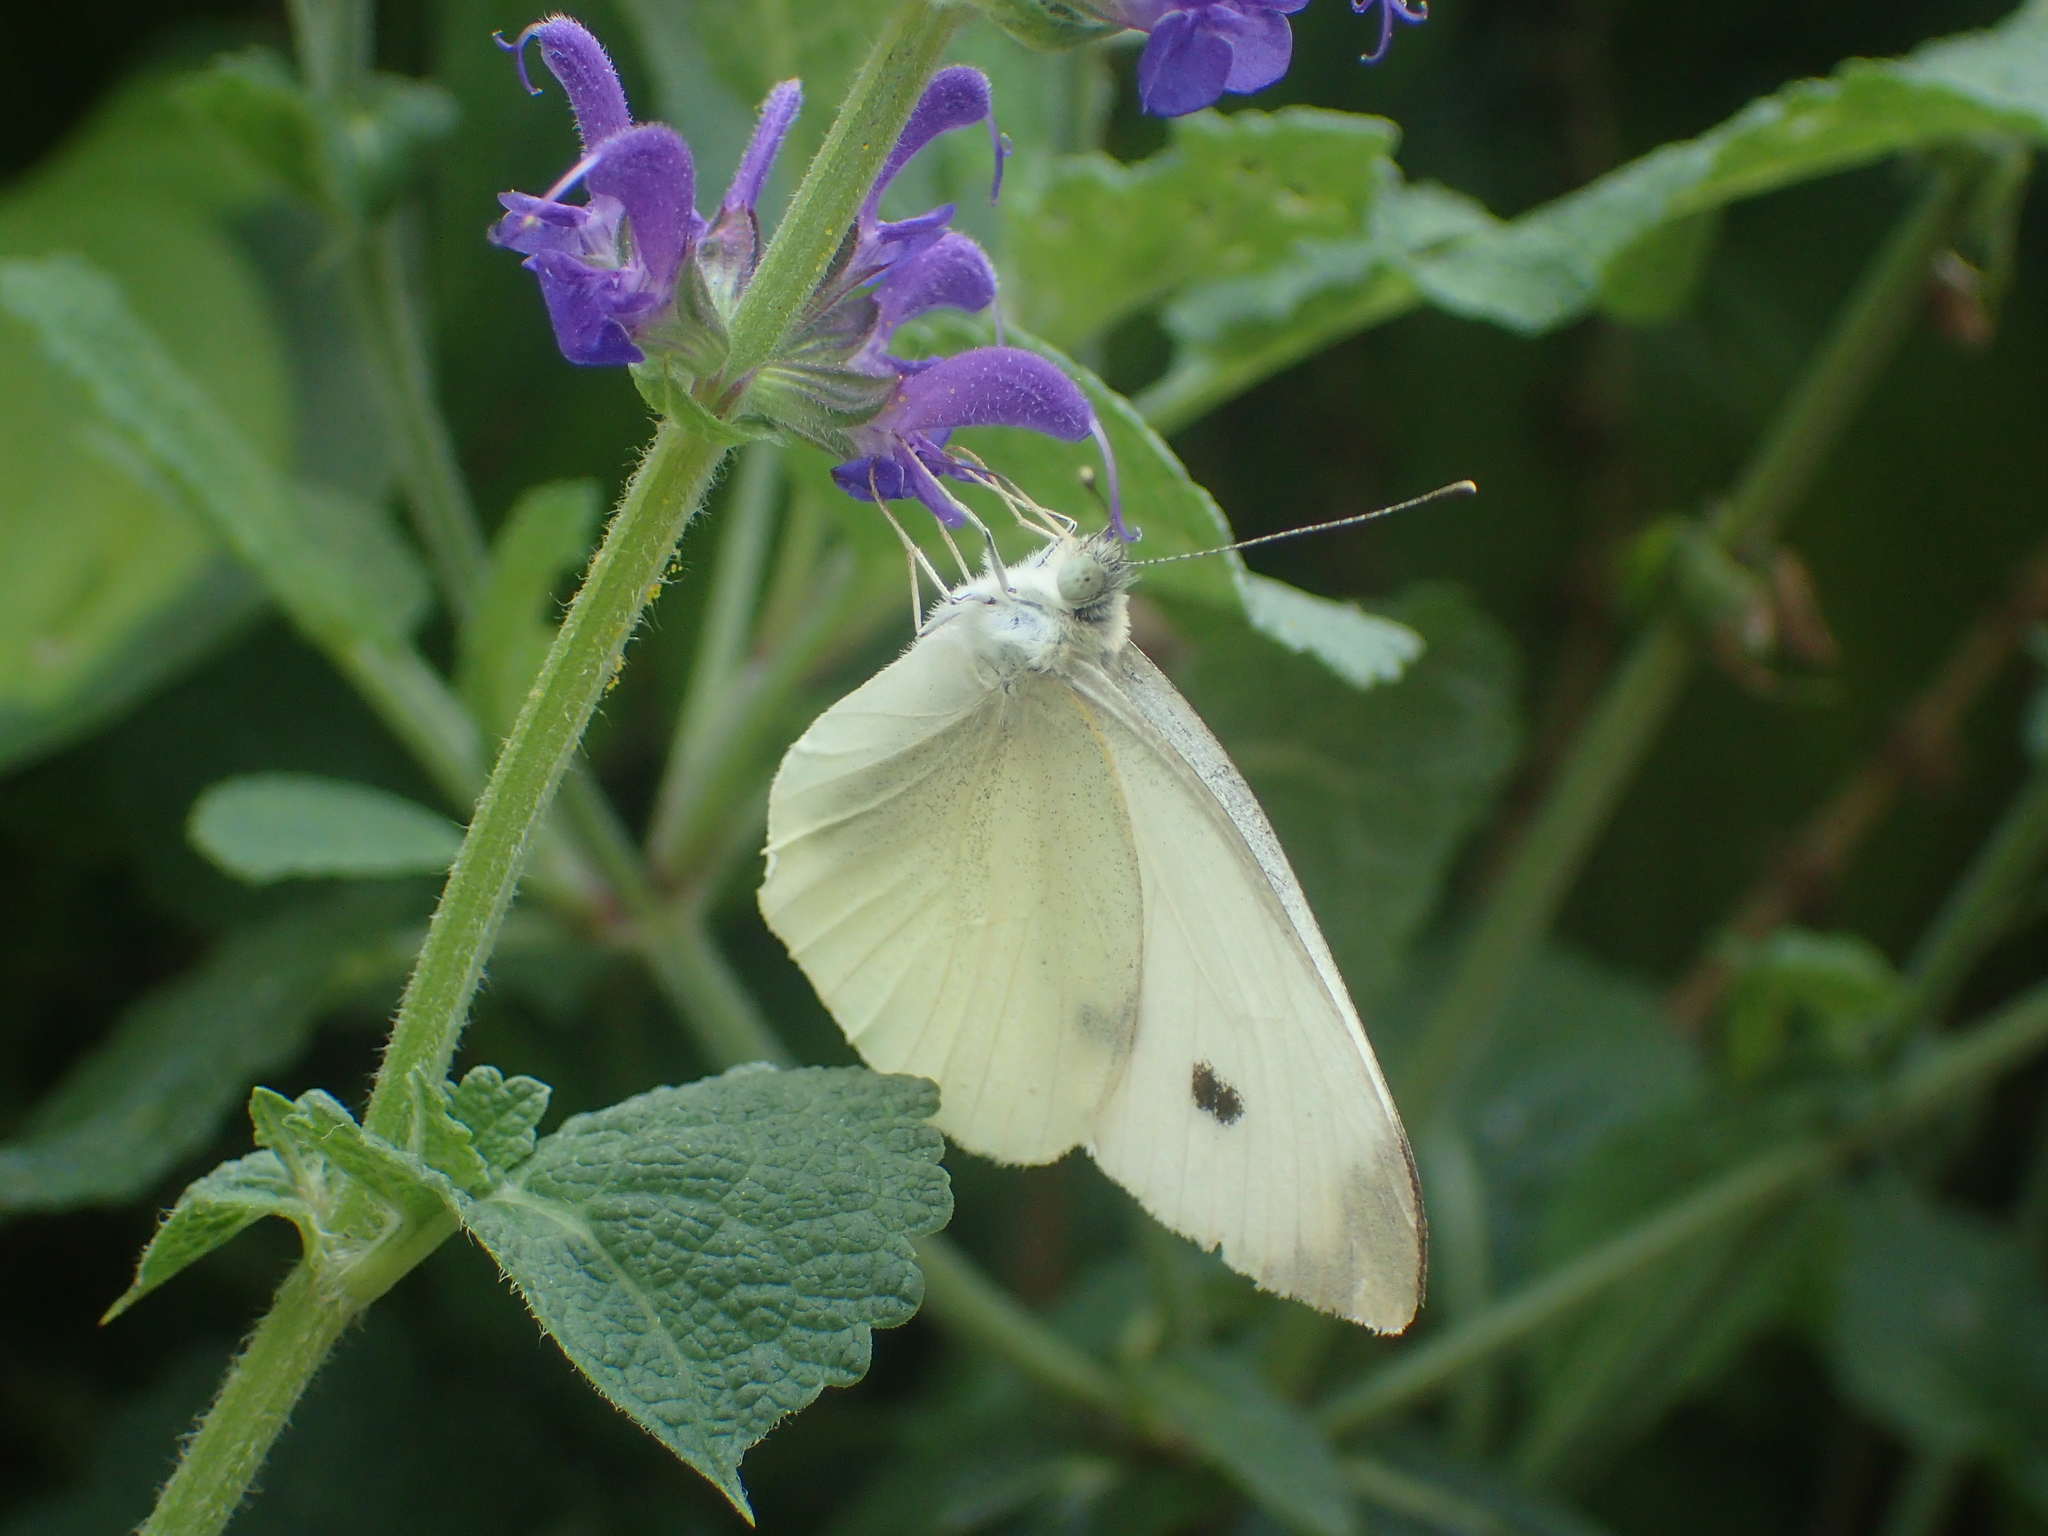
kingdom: Animalia
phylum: Arthropoda
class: Insecta
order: Lepidoptera
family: Pieridae
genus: Pieris
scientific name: Pieris rapae
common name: Small white
